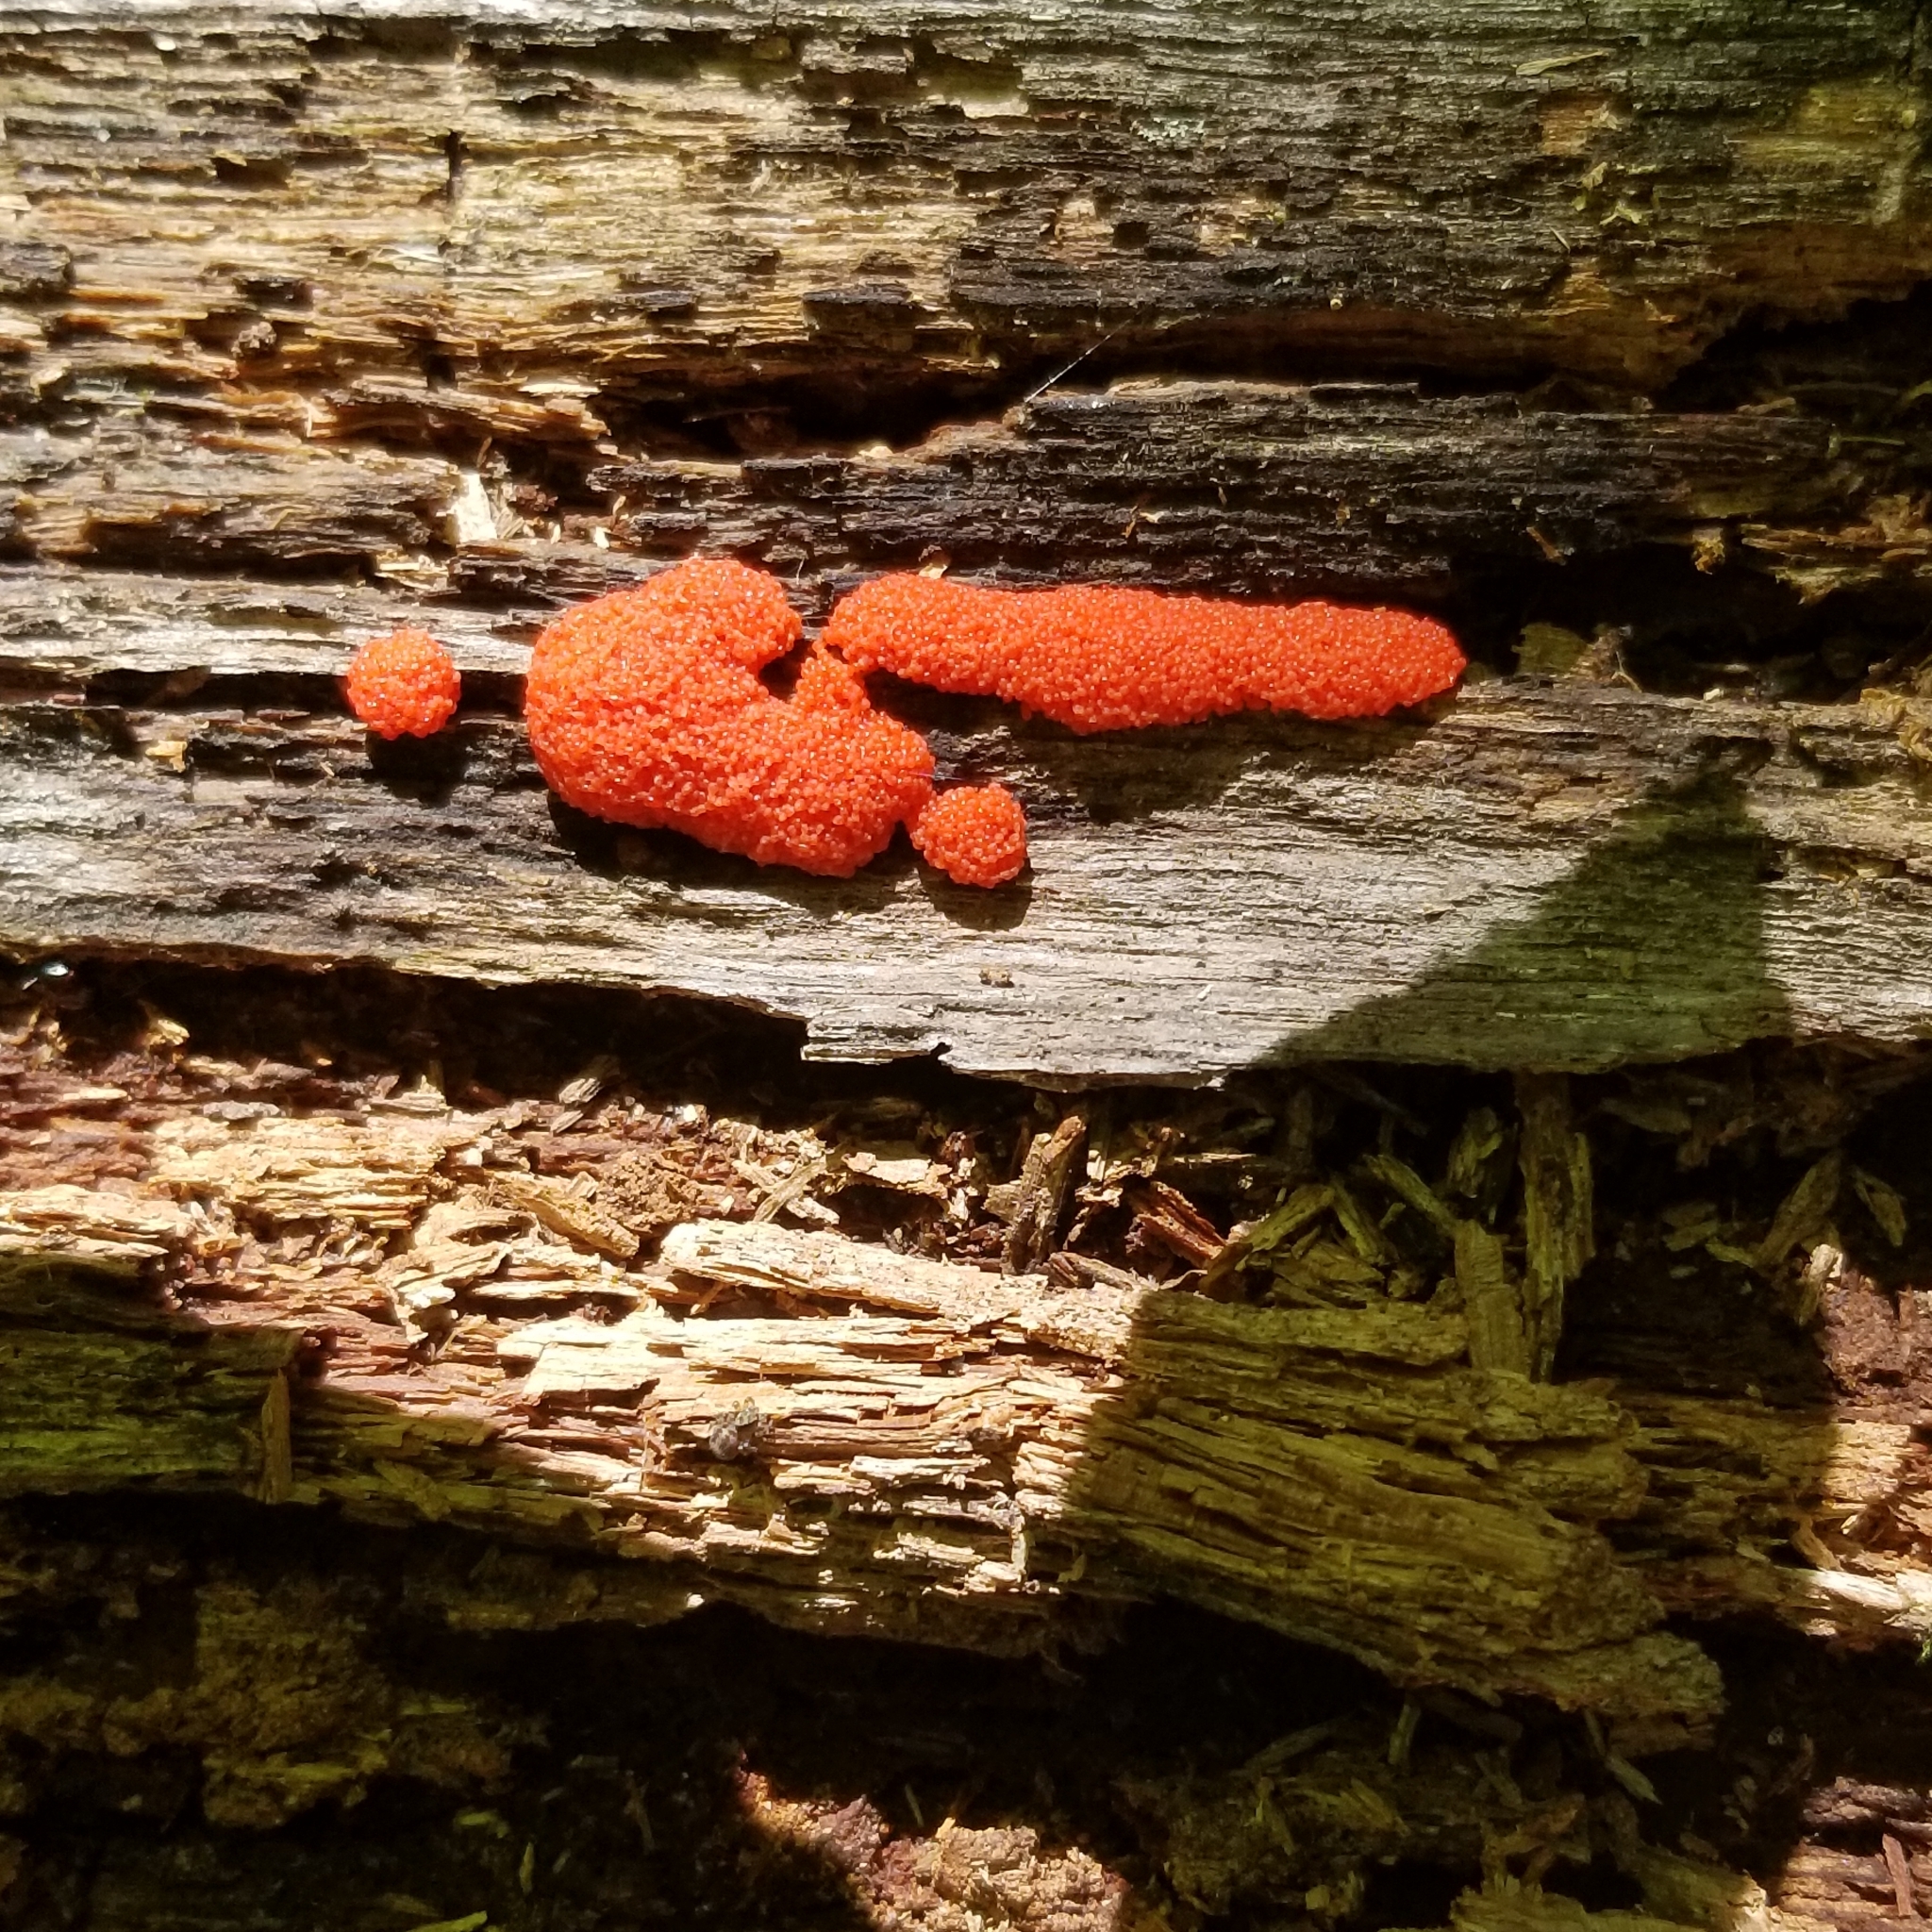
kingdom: Protozoa
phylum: Mycetozoa
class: Myxomycetes
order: Cribrariales
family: Tubiferaceae
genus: Tubifera
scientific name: Tubifera ferruginosa
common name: Red raspberry slime mold
